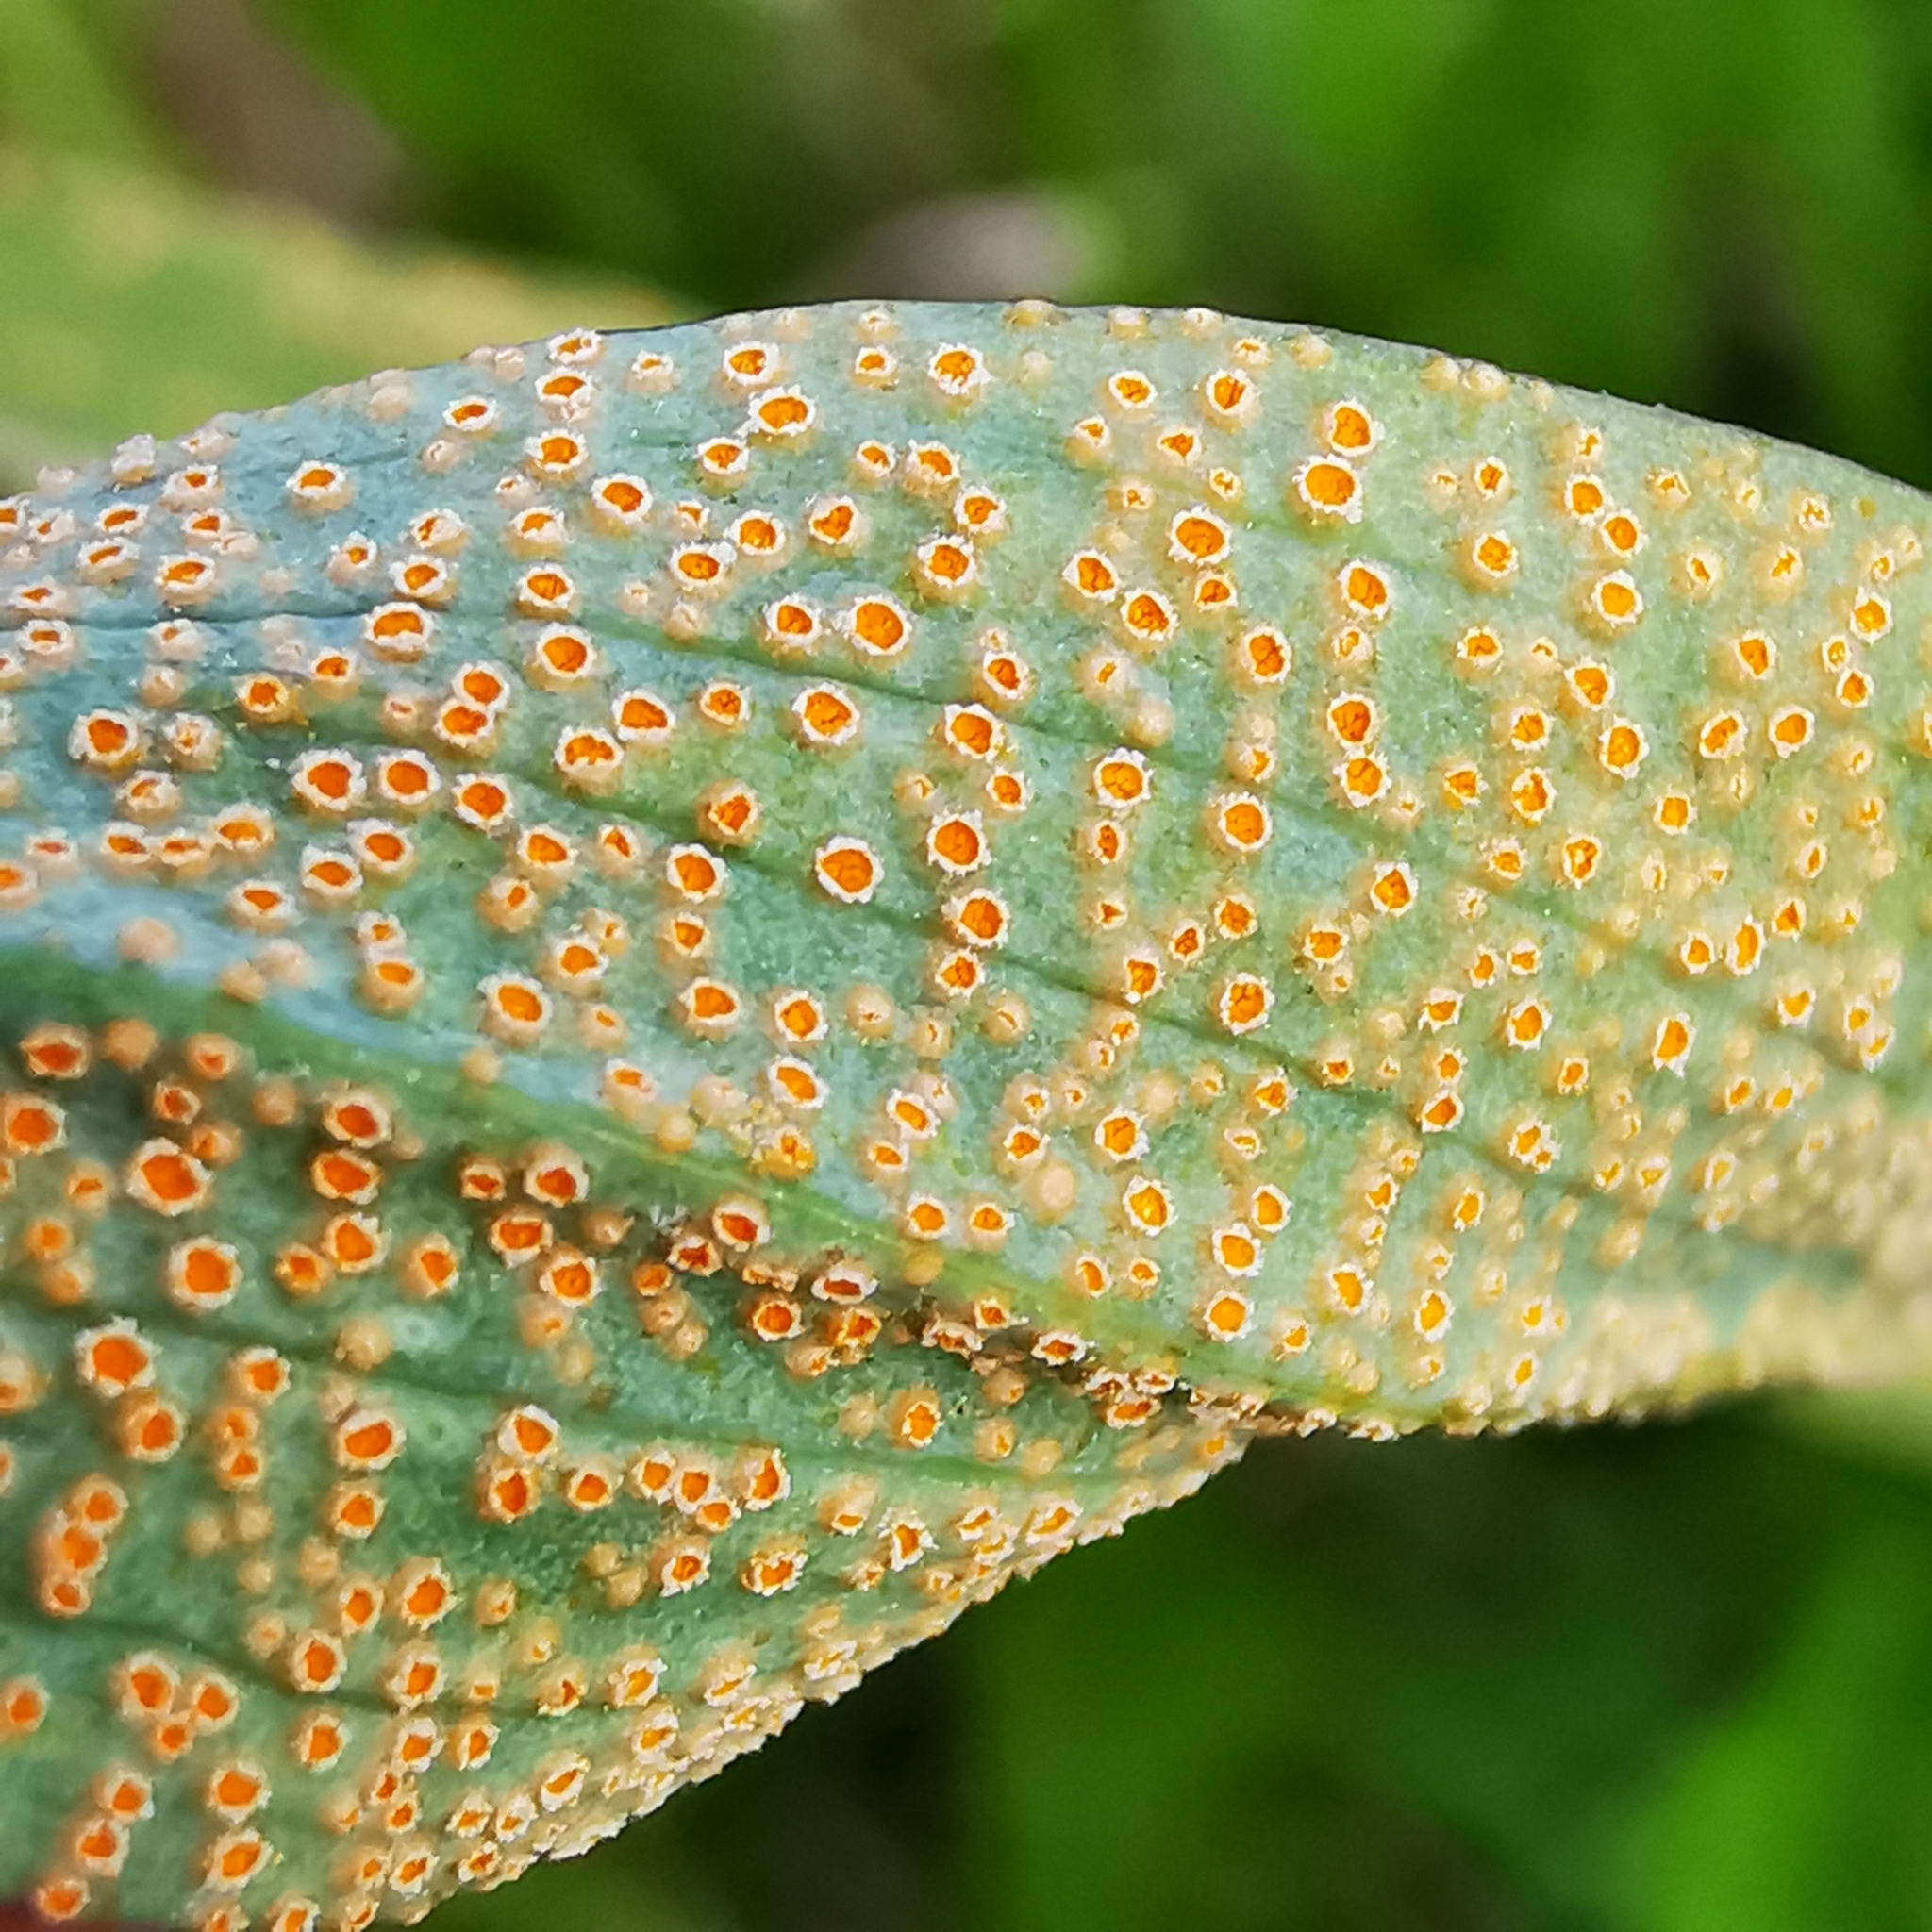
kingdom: Fungi
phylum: Basidiomycota
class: Pucciniomycetes
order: Pucciniales
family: Pucciniaceae
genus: Puccinia
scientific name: Puccinia hysterium
